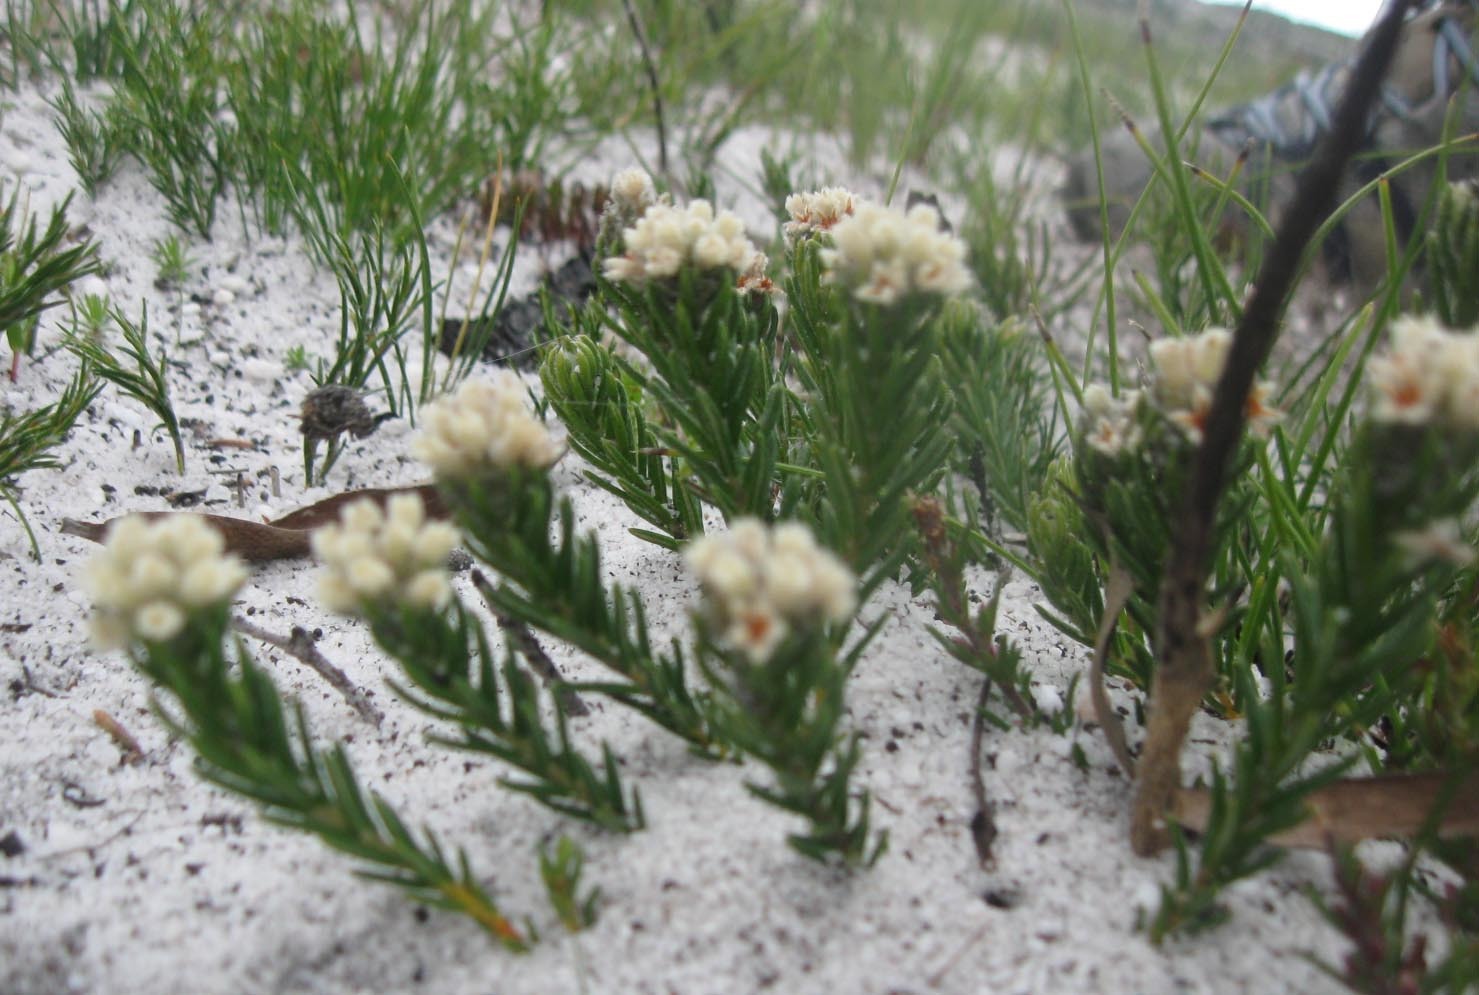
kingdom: Plantae
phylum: Tracheophyta
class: Magnoliopsida
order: Rosales
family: Rhamnaceae
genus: Phylica
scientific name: Phylica imberbis
